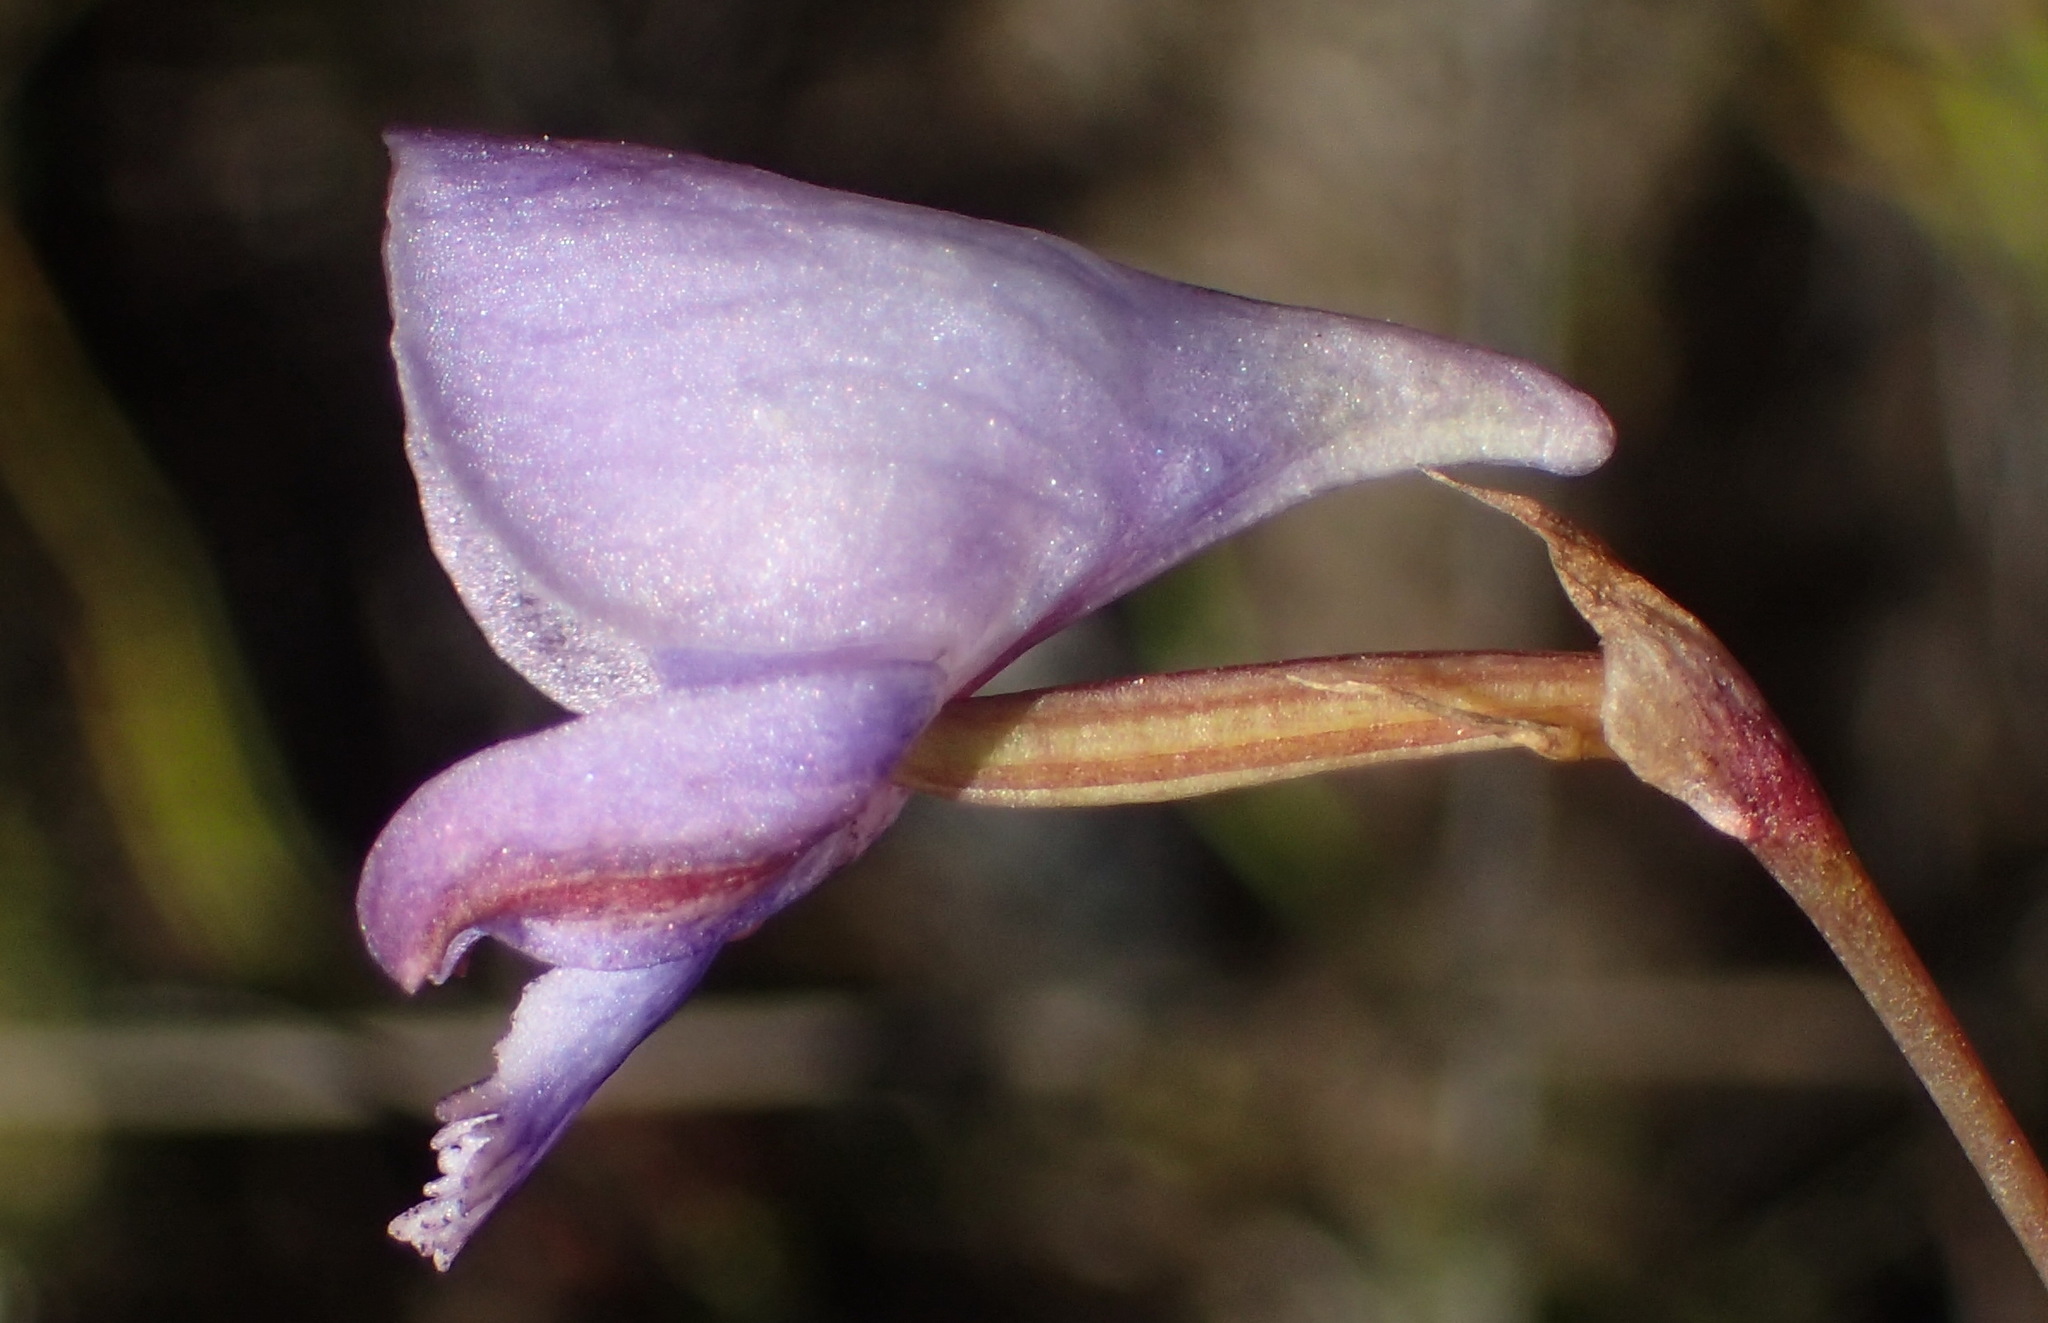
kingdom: Plantae
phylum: Tracheophyta
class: Liliopsida
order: Asparagales
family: Orchidaceae
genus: Disa
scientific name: Disa hians
